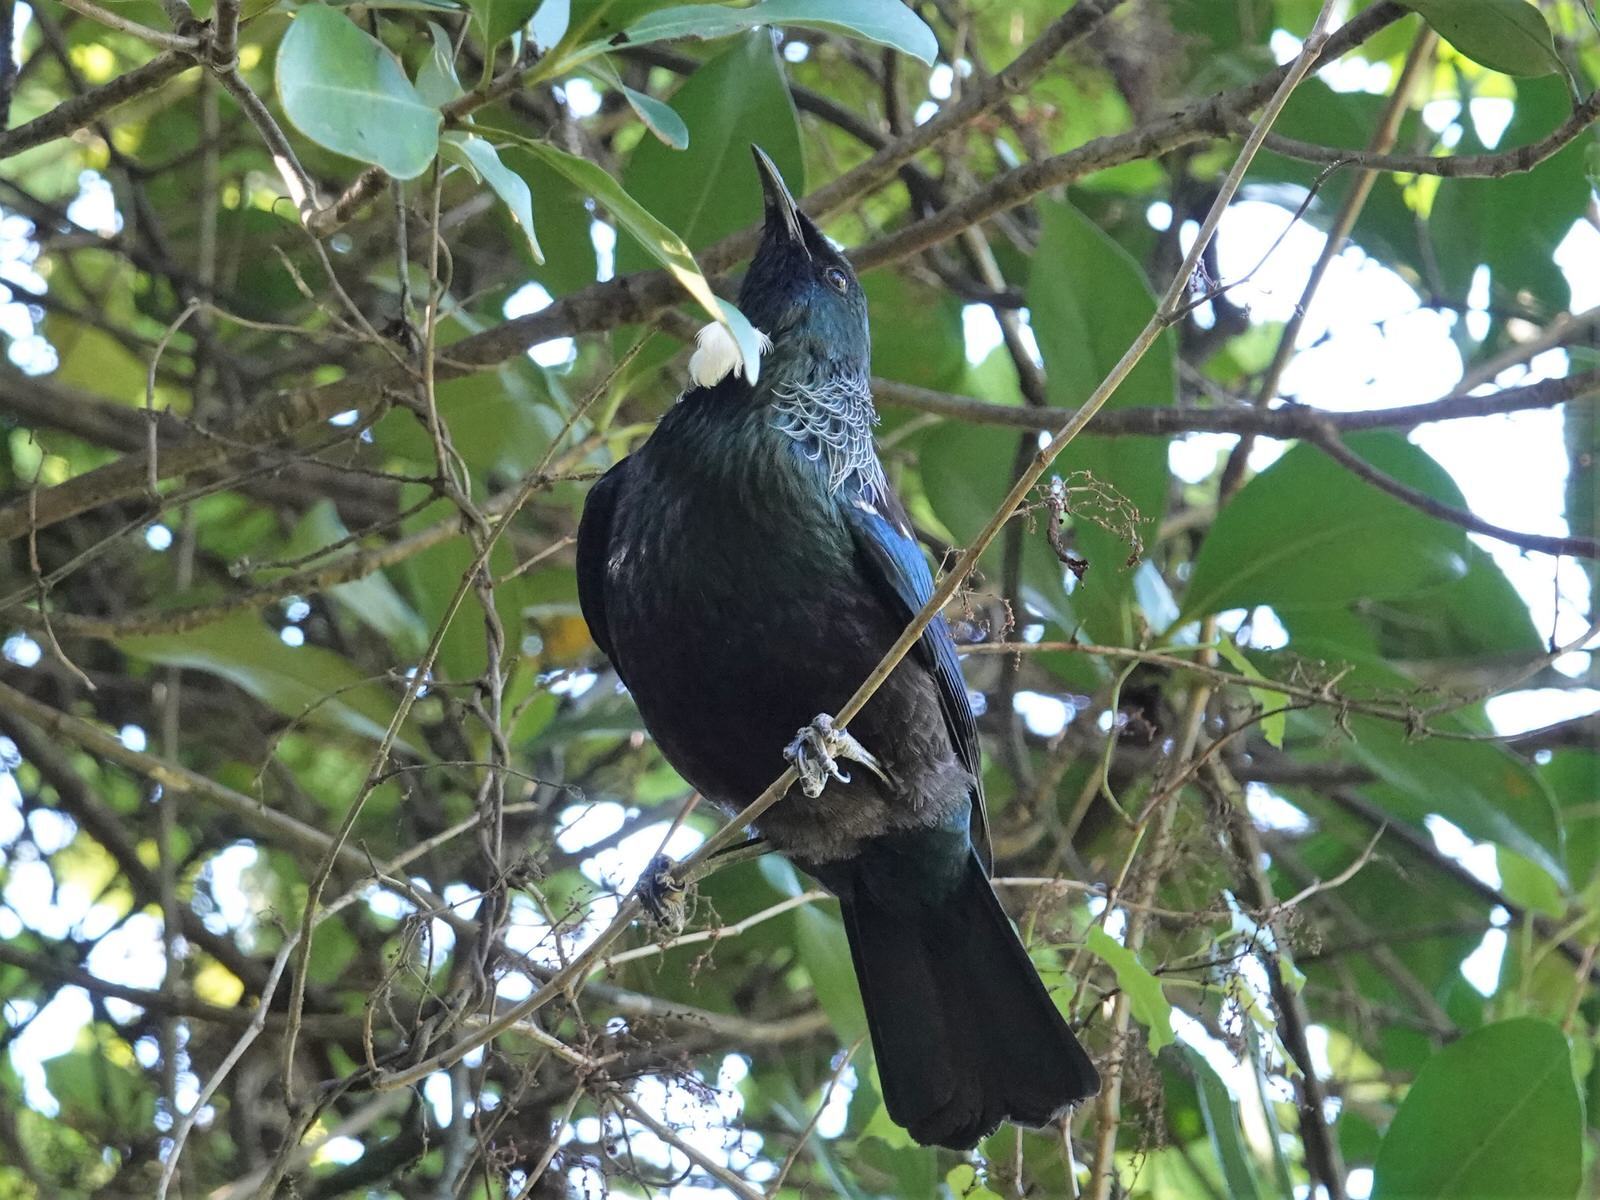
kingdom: Animalia
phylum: Chordata
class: Aves
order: Passeriformes
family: Meliphagidae
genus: Prosthemadera
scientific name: Prosthemadera novaeseelandiae
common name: Tui
